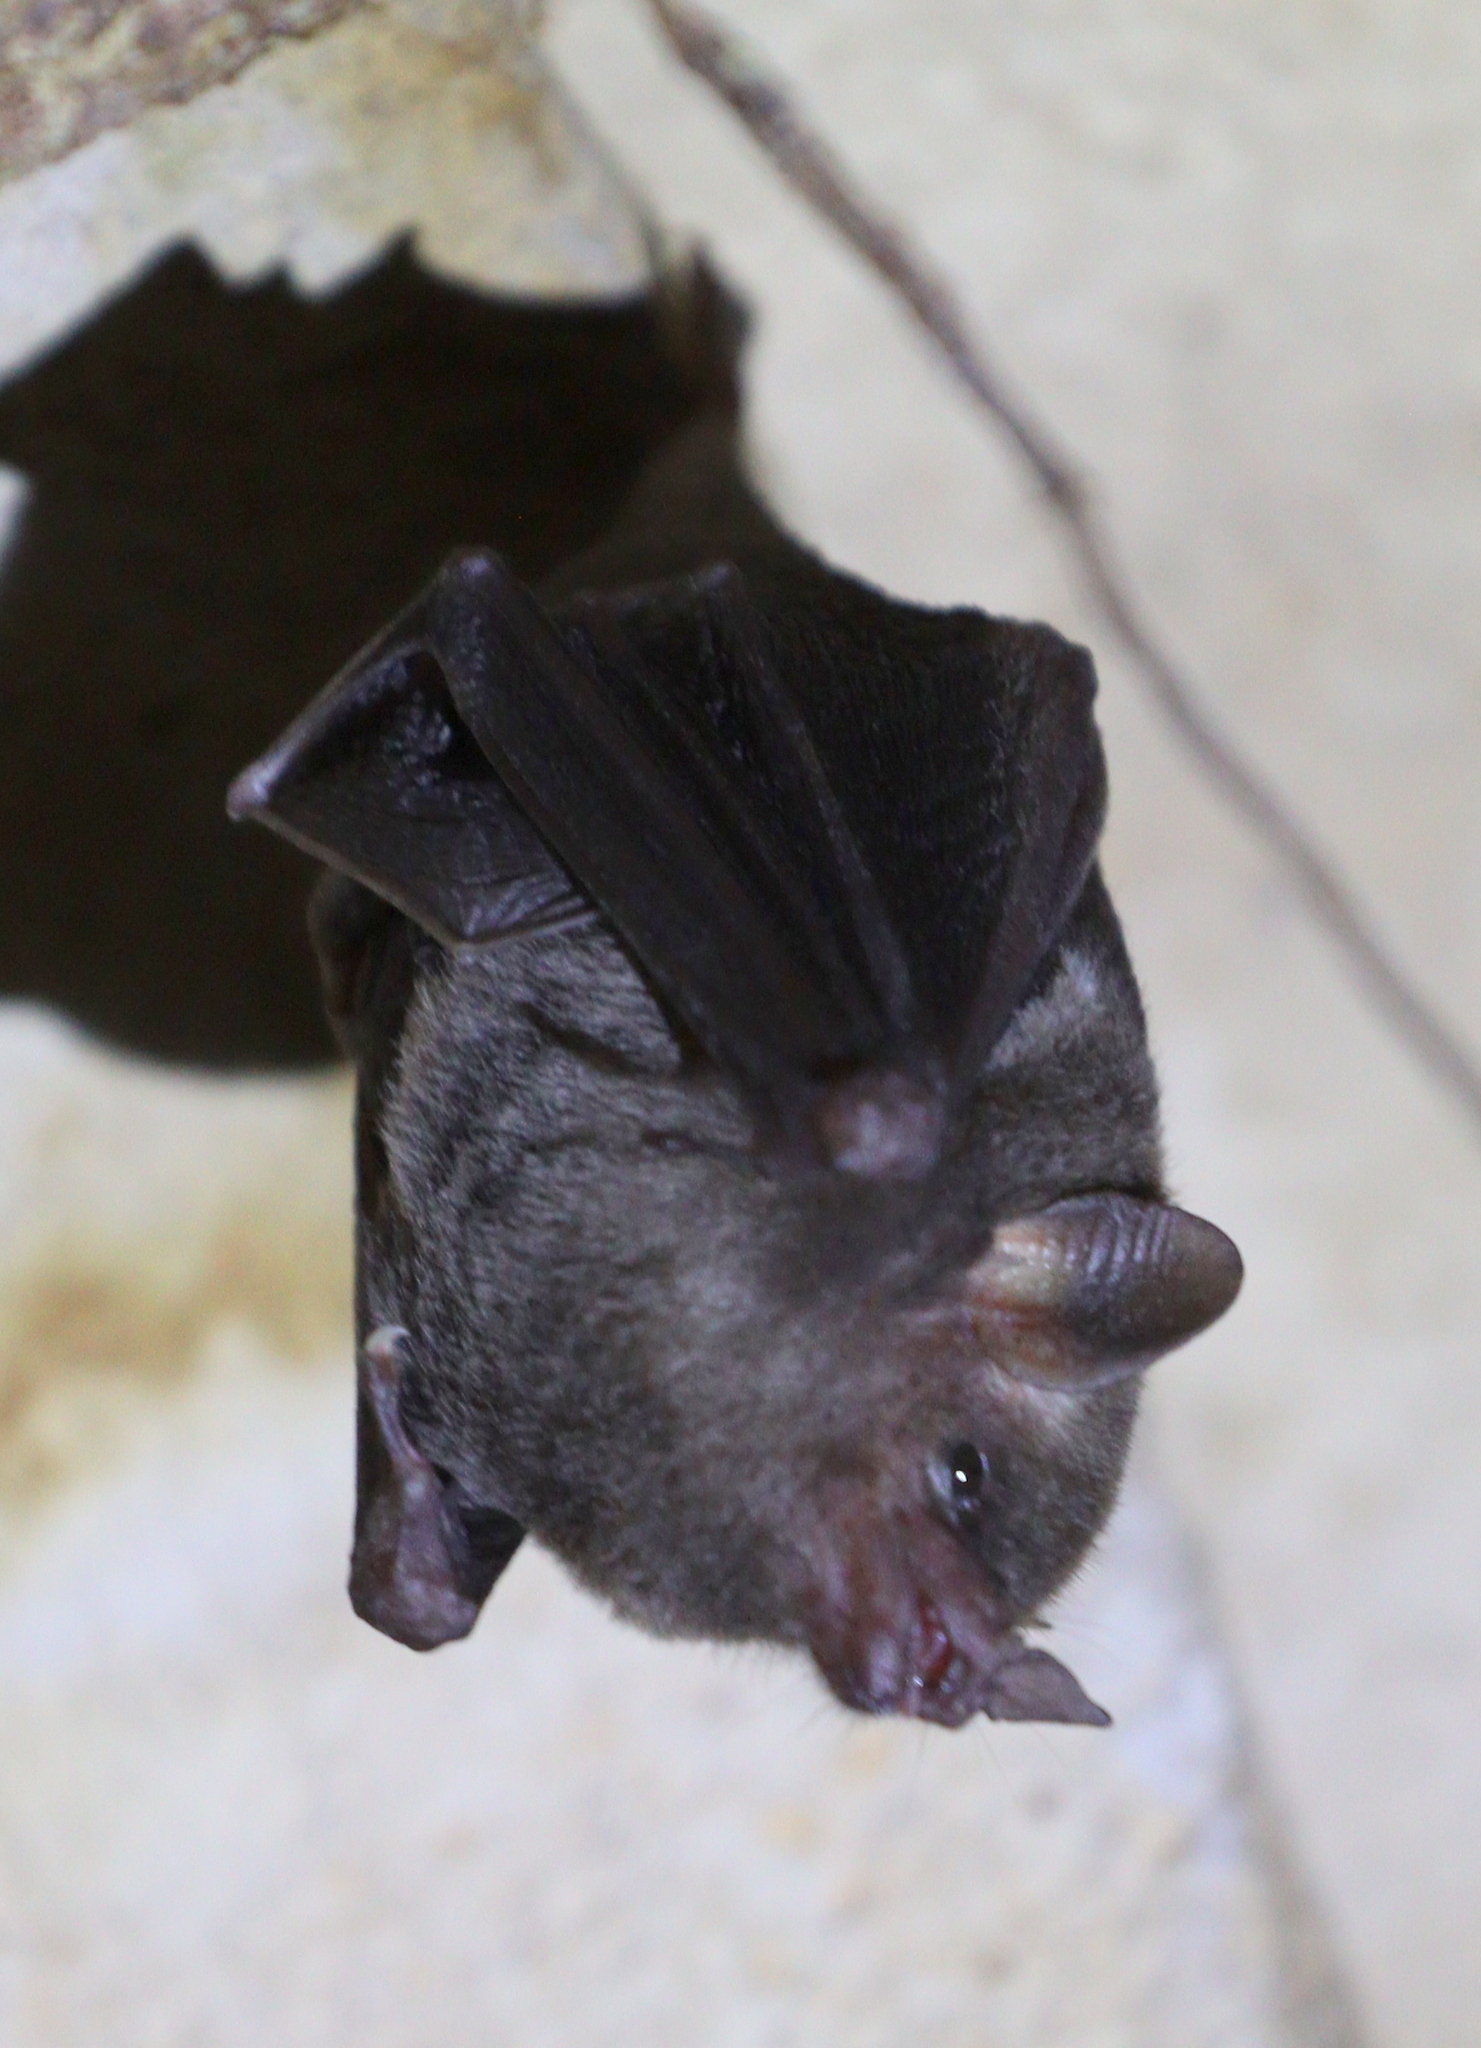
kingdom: Animalia
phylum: Chordata
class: Mammalia
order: Chiroptera
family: Phyllostomidae
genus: Glossophaga
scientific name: Glossophaga soricina
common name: Pallas's long-tongued bat
